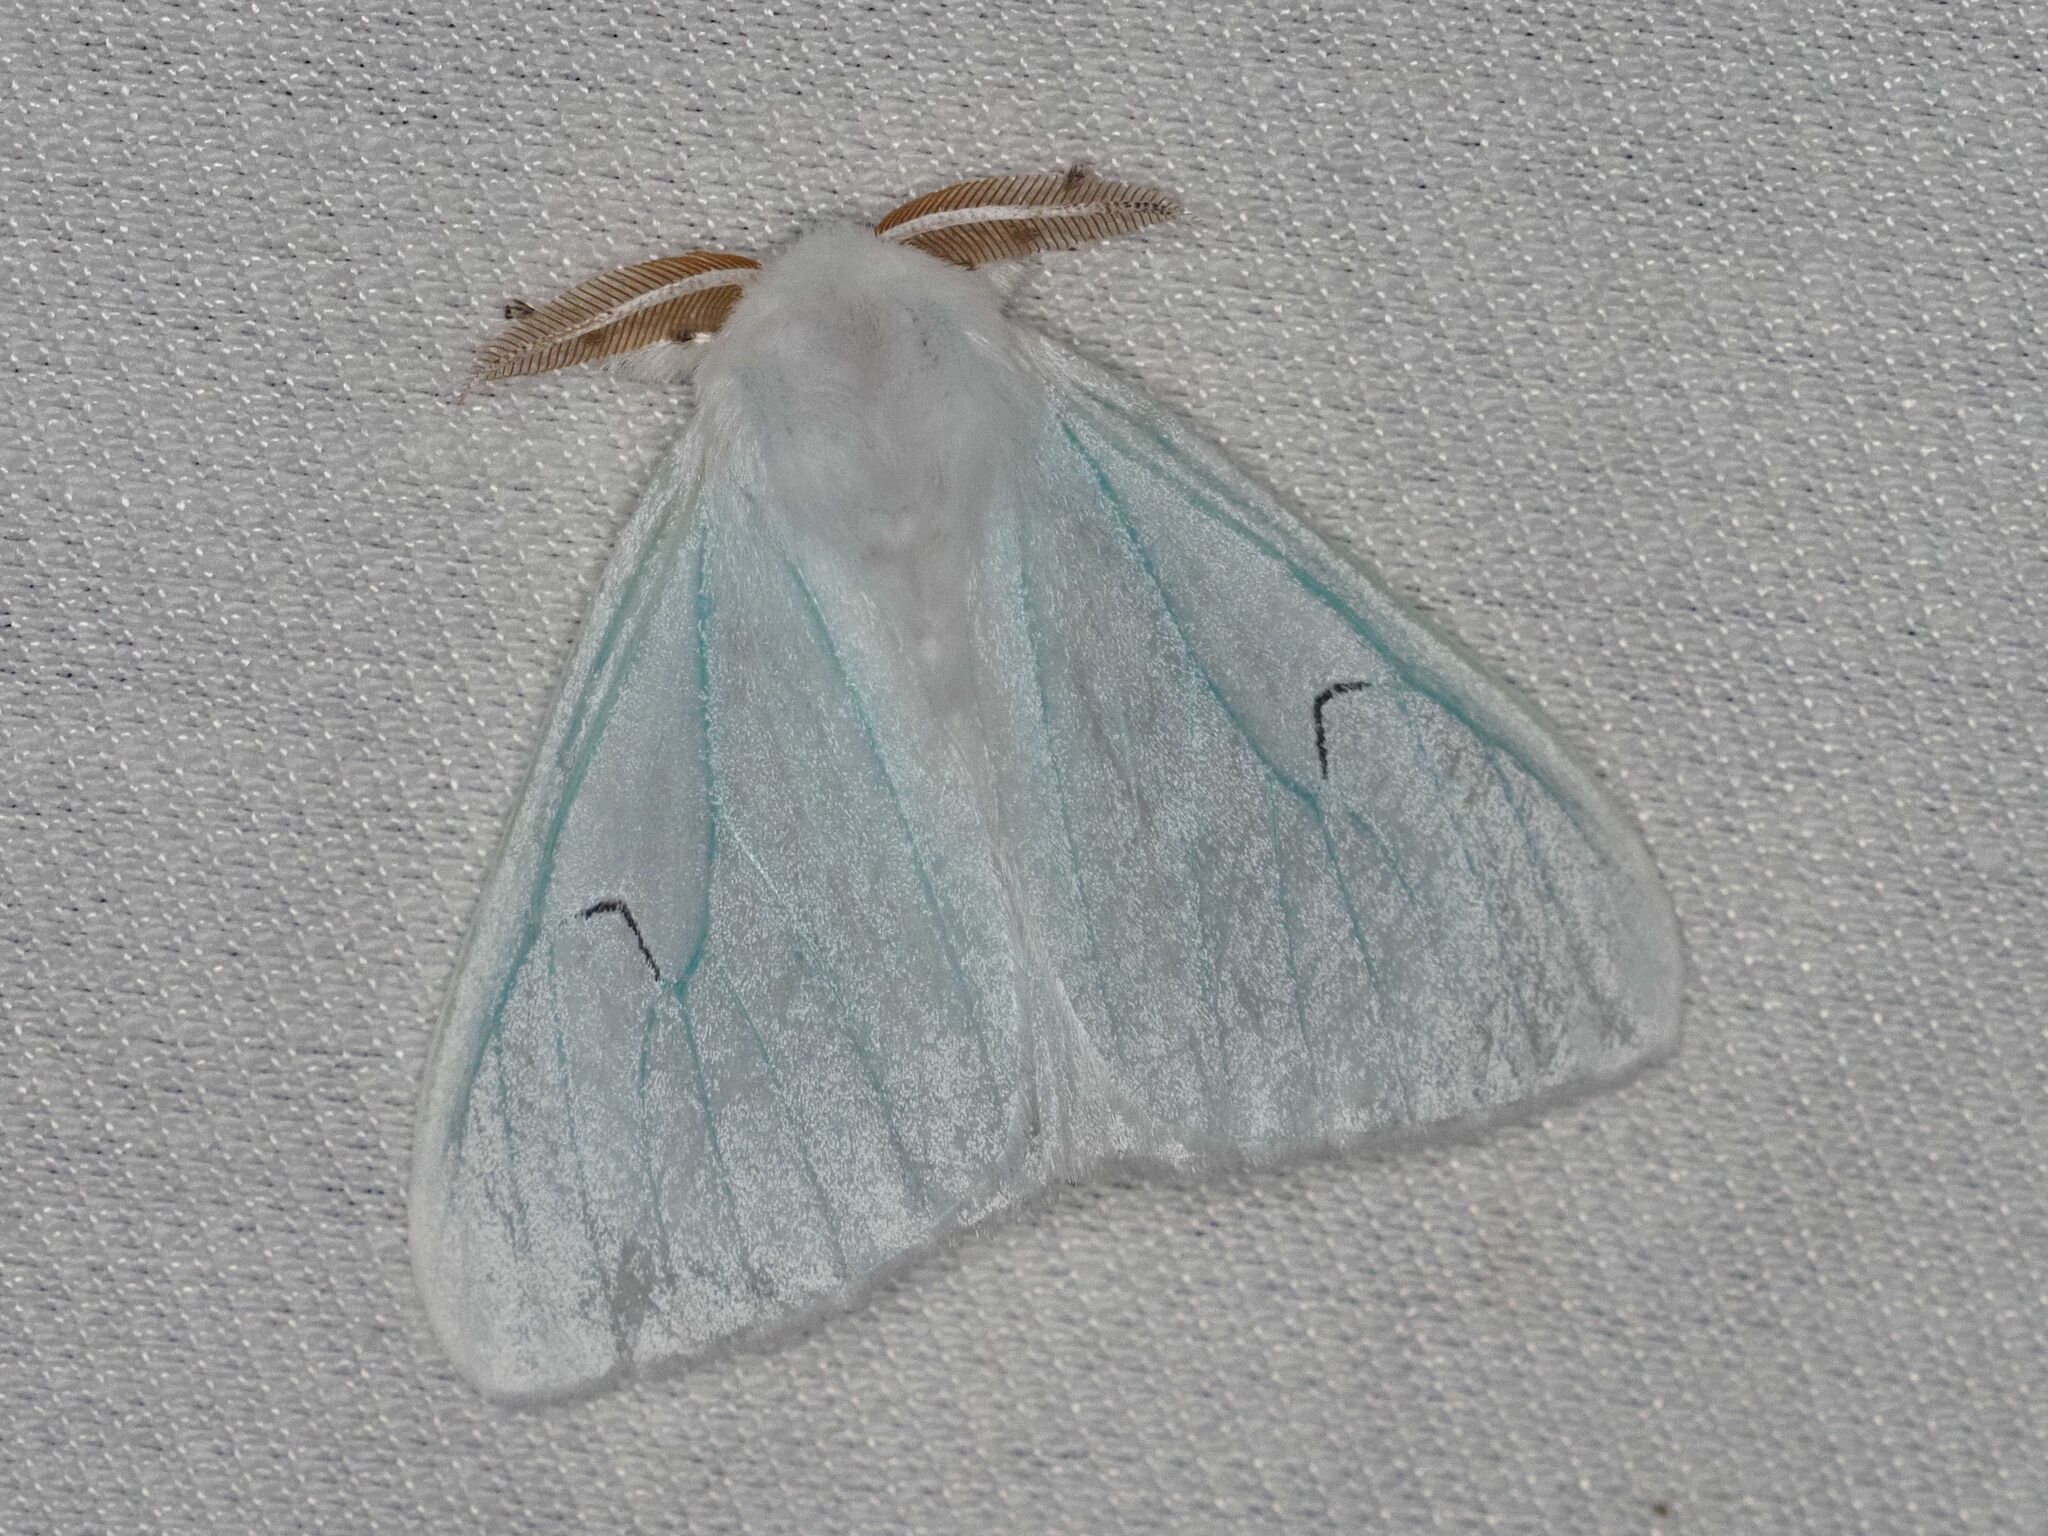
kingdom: Animalia
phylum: Arthropoda
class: Insecta
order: Lepidoptera
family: Erebidae
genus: Arctornis
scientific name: Arctornis l-nigrum
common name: Black v moth
